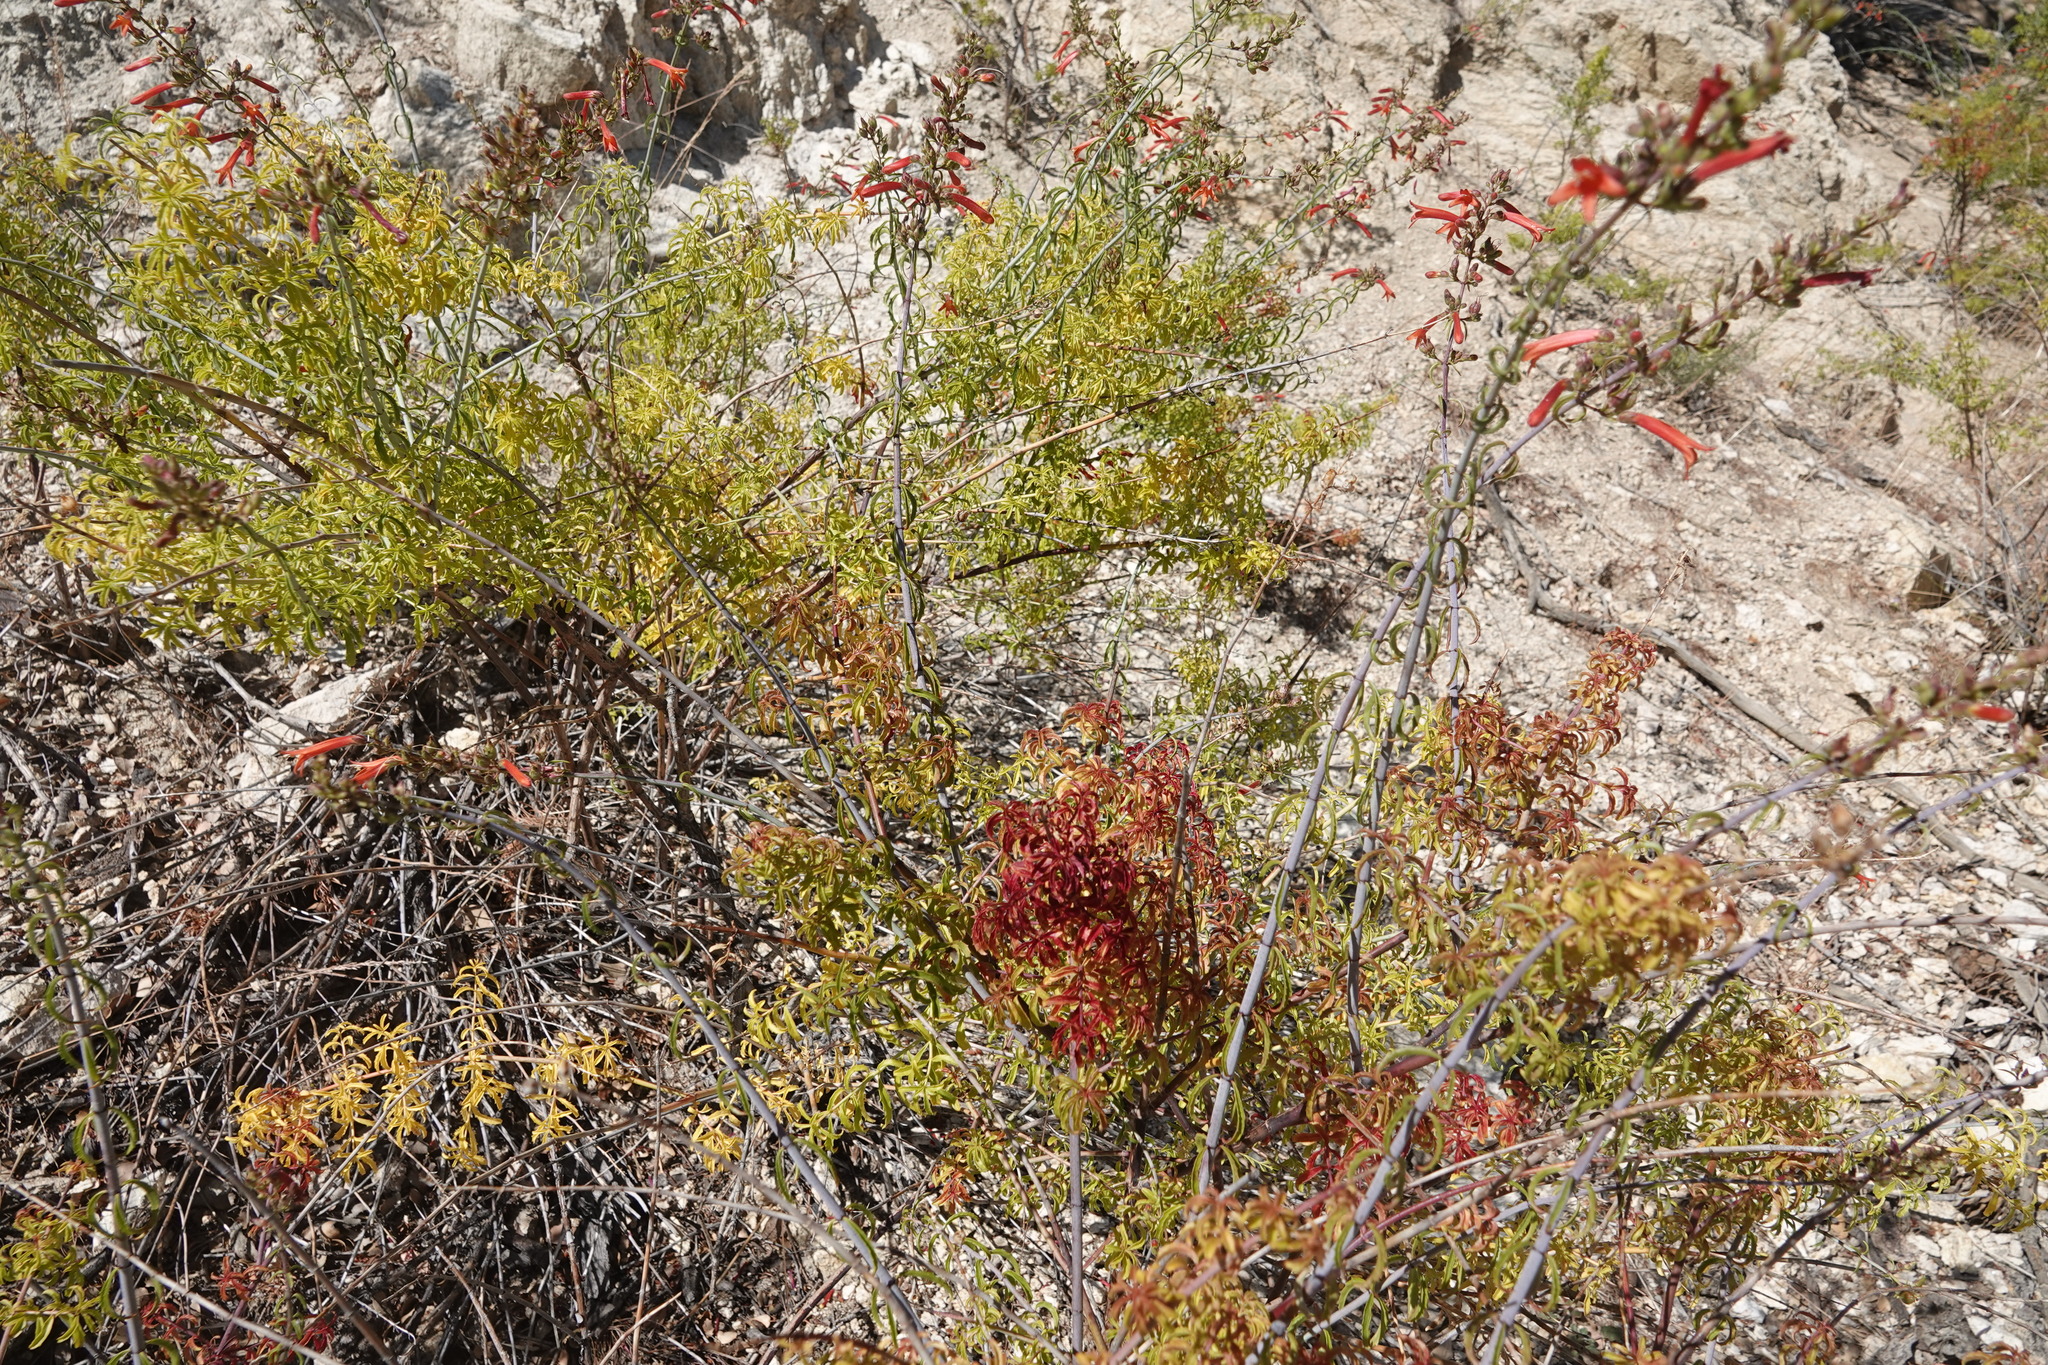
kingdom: Plantae
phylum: Tracheophyta
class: Magnoliopsida
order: Lamiales
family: Plantaginaceae
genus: Keckiella
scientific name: Keckiella ternata
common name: Scarlet keckiella
